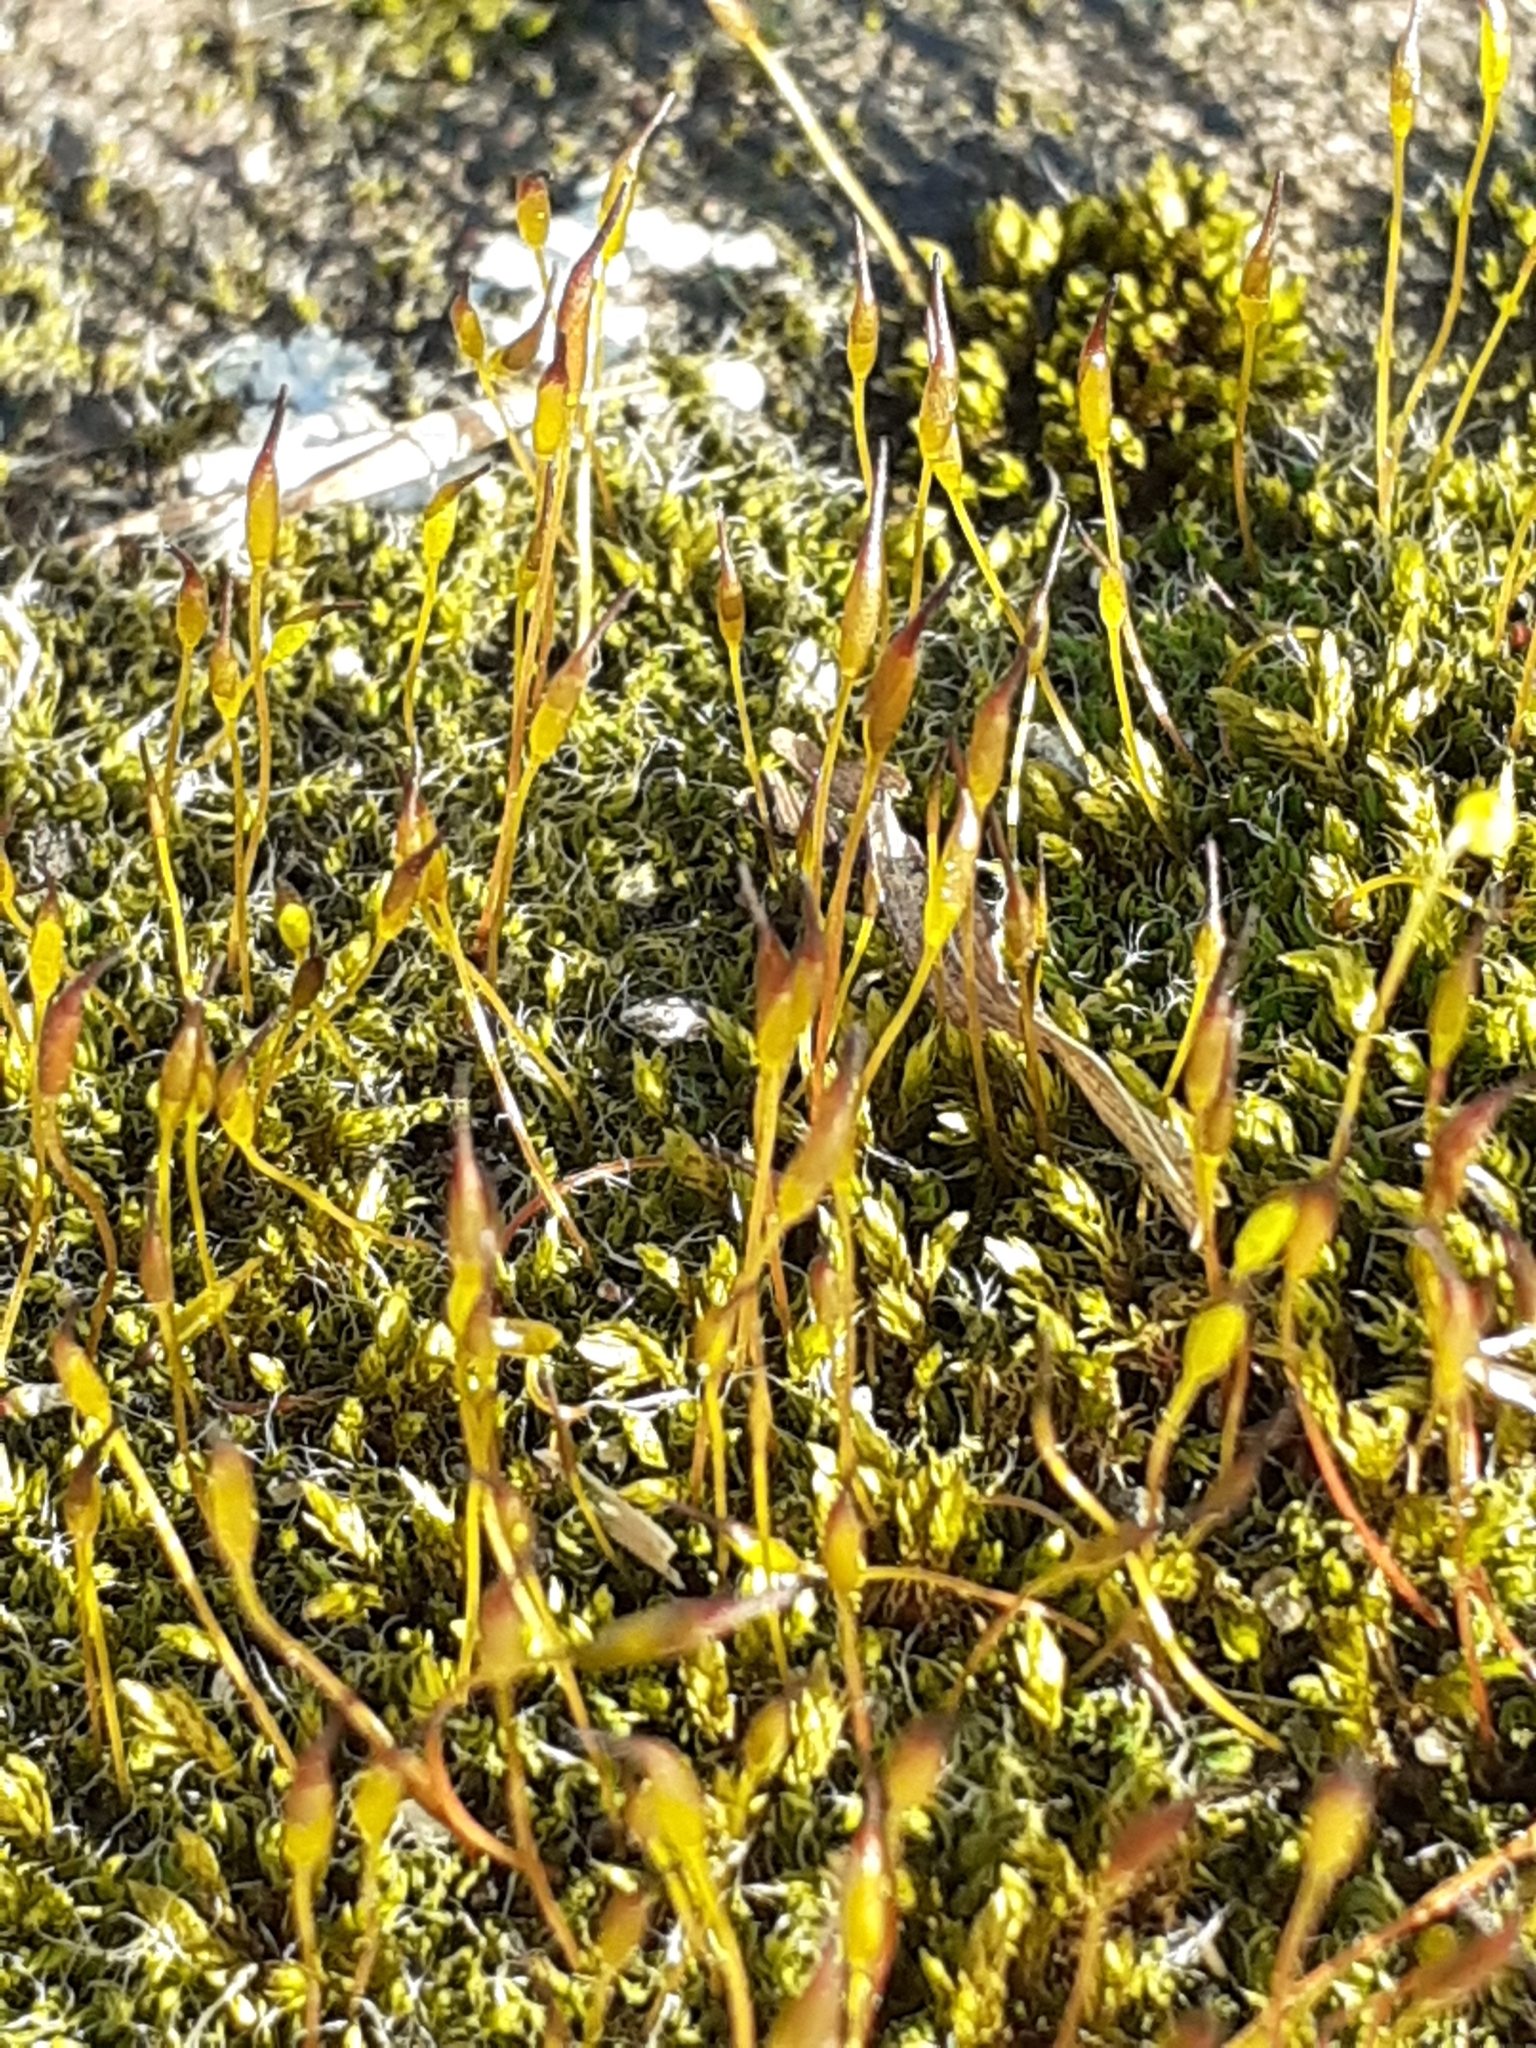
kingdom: Plantae
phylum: Bryophyta
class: Bryopsida
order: Pottiales
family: Pottiaceae
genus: Tortula
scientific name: Tortula muralis
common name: Wall screw-moss
